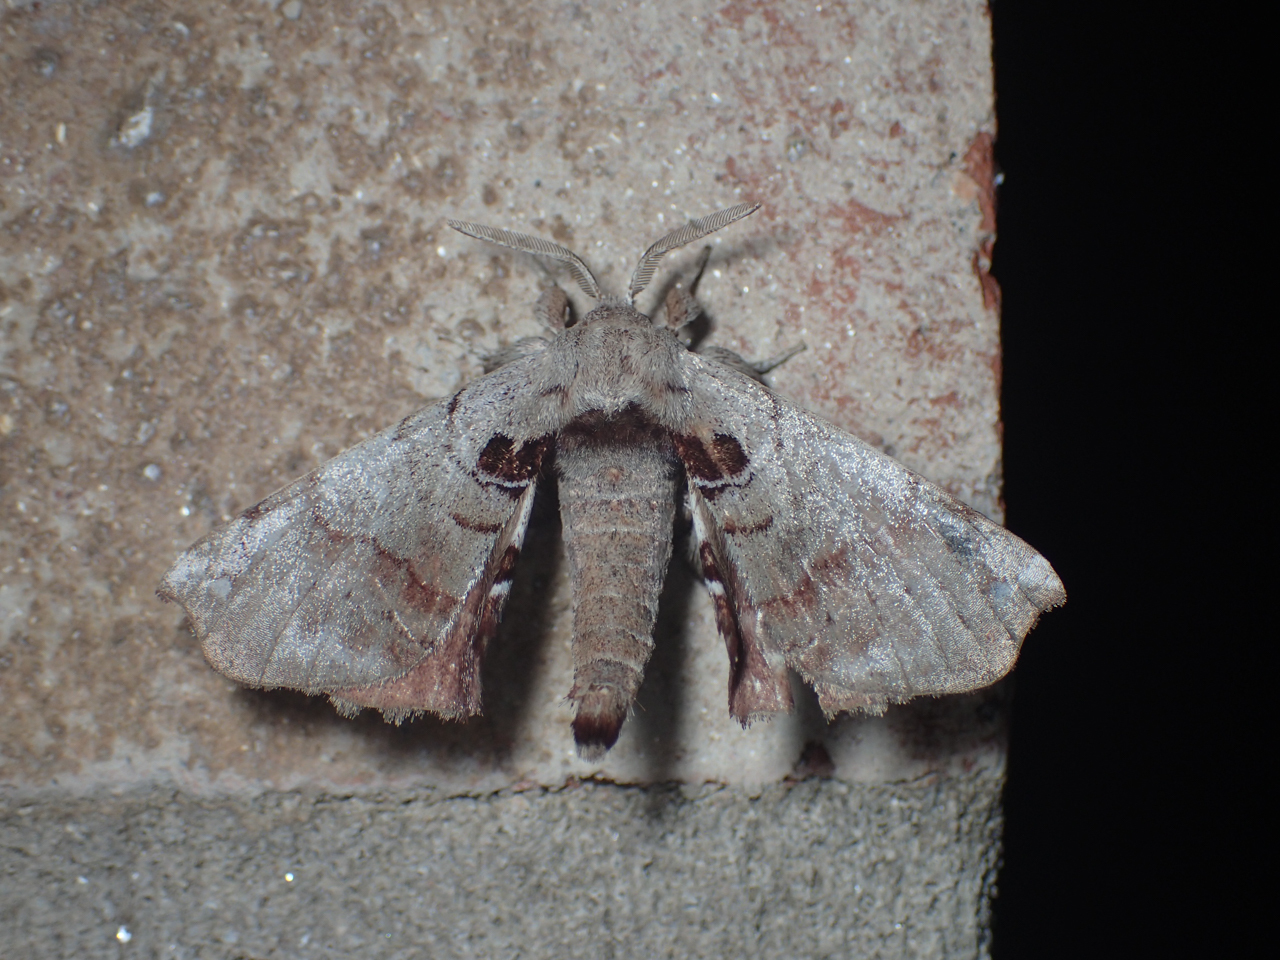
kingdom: Animalia
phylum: Arthropoda
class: Insecta
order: Lepidoptera
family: Apatelodidae
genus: Hygrochroa
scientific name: Hygrochroa Apatelodes torrefacta
